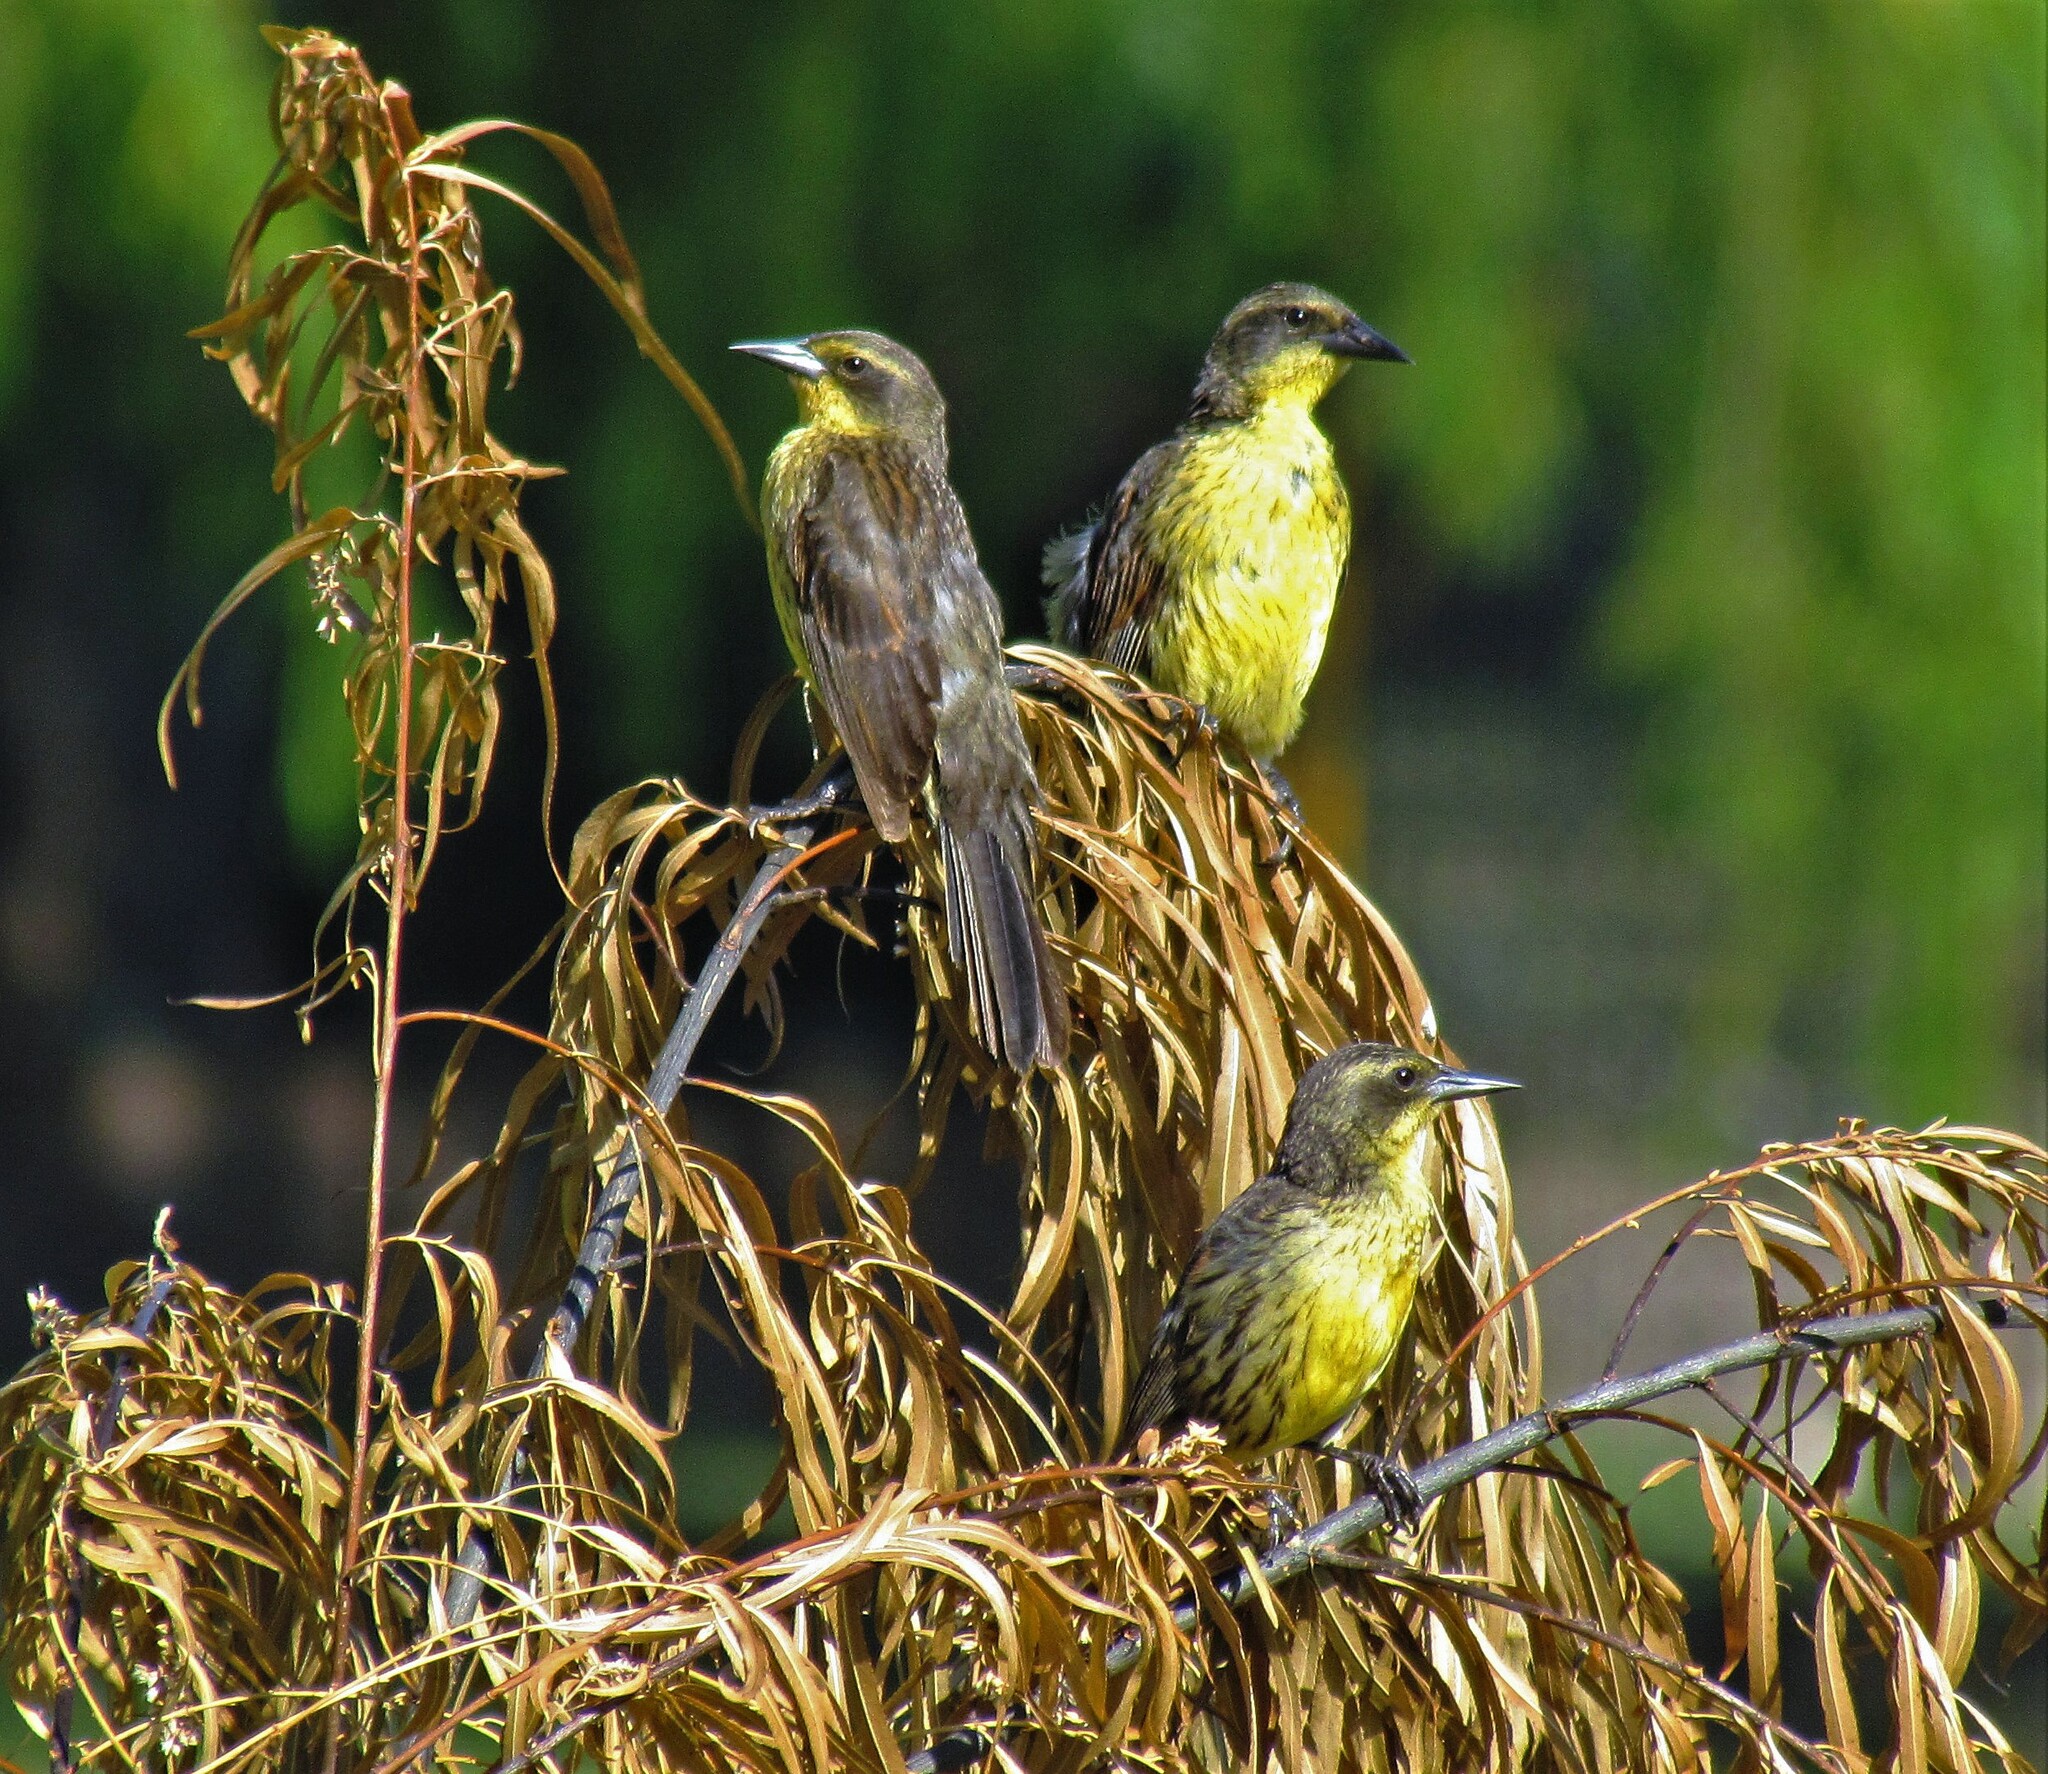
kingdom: Animalia
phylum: Chordata
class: Aves
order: Passeriformes
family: Icteridae
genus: Agelasticus
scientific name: Agelasticus cyanopus
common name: Unicolored blackbird
